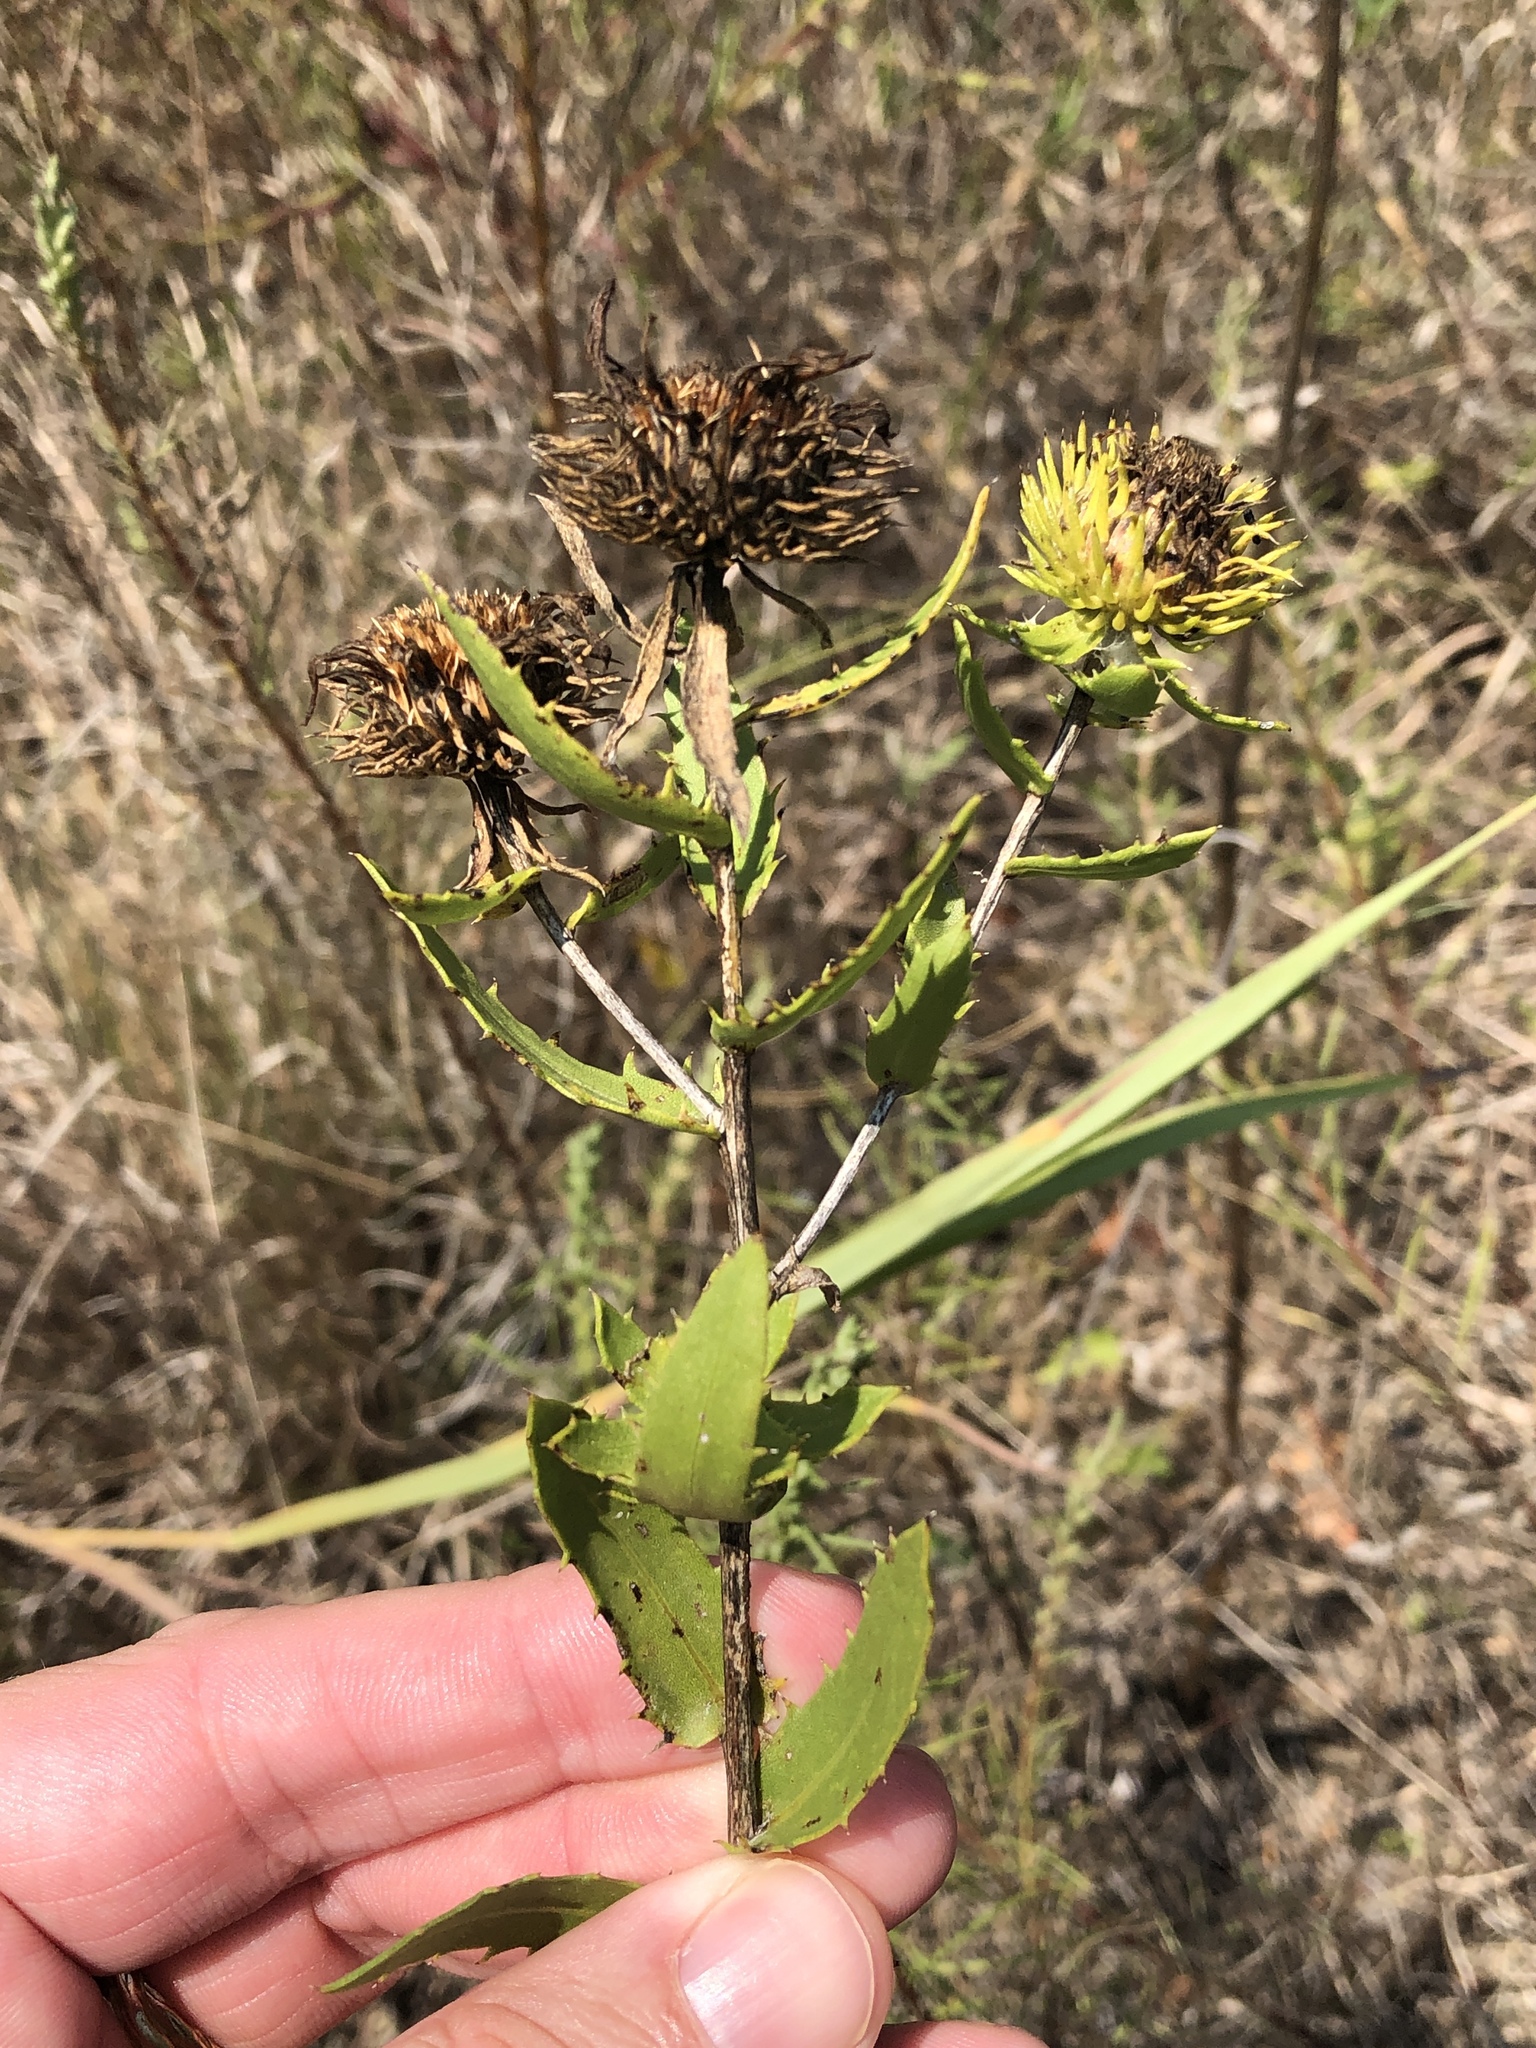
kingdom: Plantae
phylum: Tracheophyta
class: Magnoliopsida
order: Asterales
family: Asteraceae
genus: Grindelia
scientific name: Grindelia lanceolata
